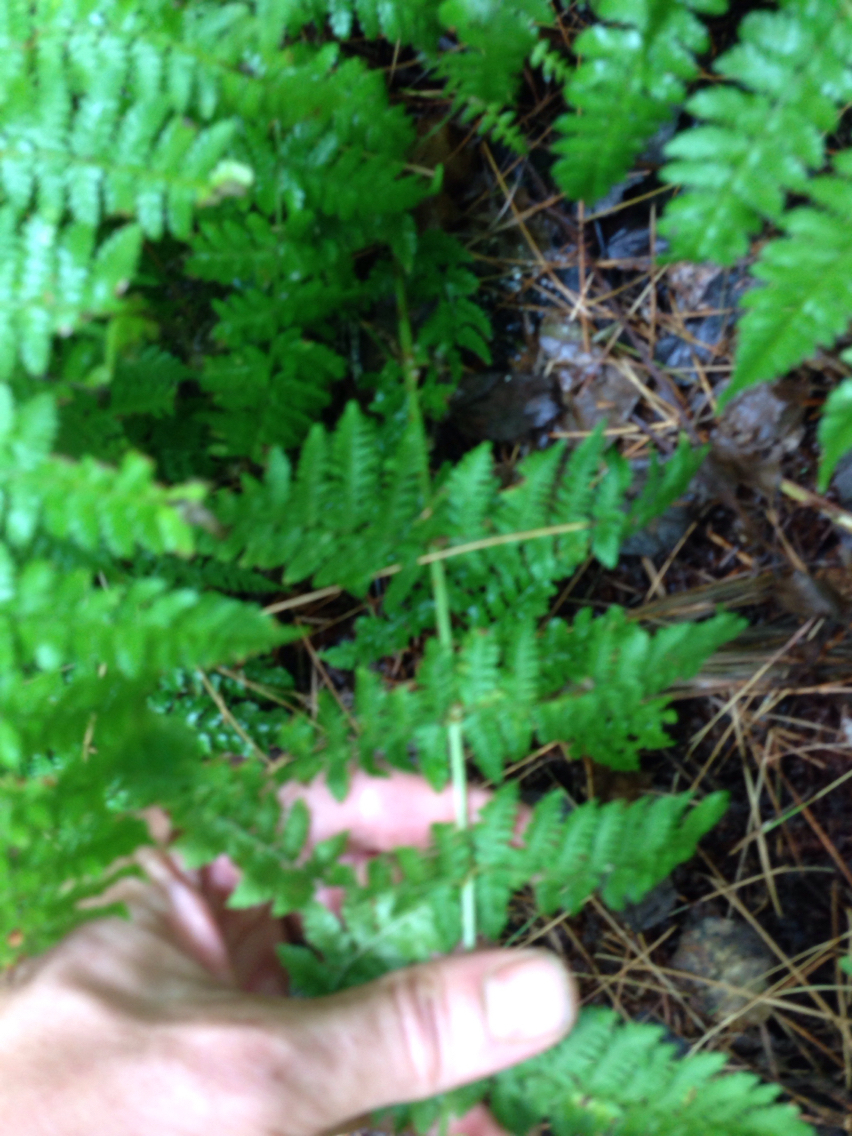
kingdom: Plantae
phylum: Tracheophyta
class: Polypodiopsida
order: Polypodiales
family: Dryopteridaceae
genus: Dryopteris
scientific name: Dryopteris intermedia
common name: Evergreen wood fern
